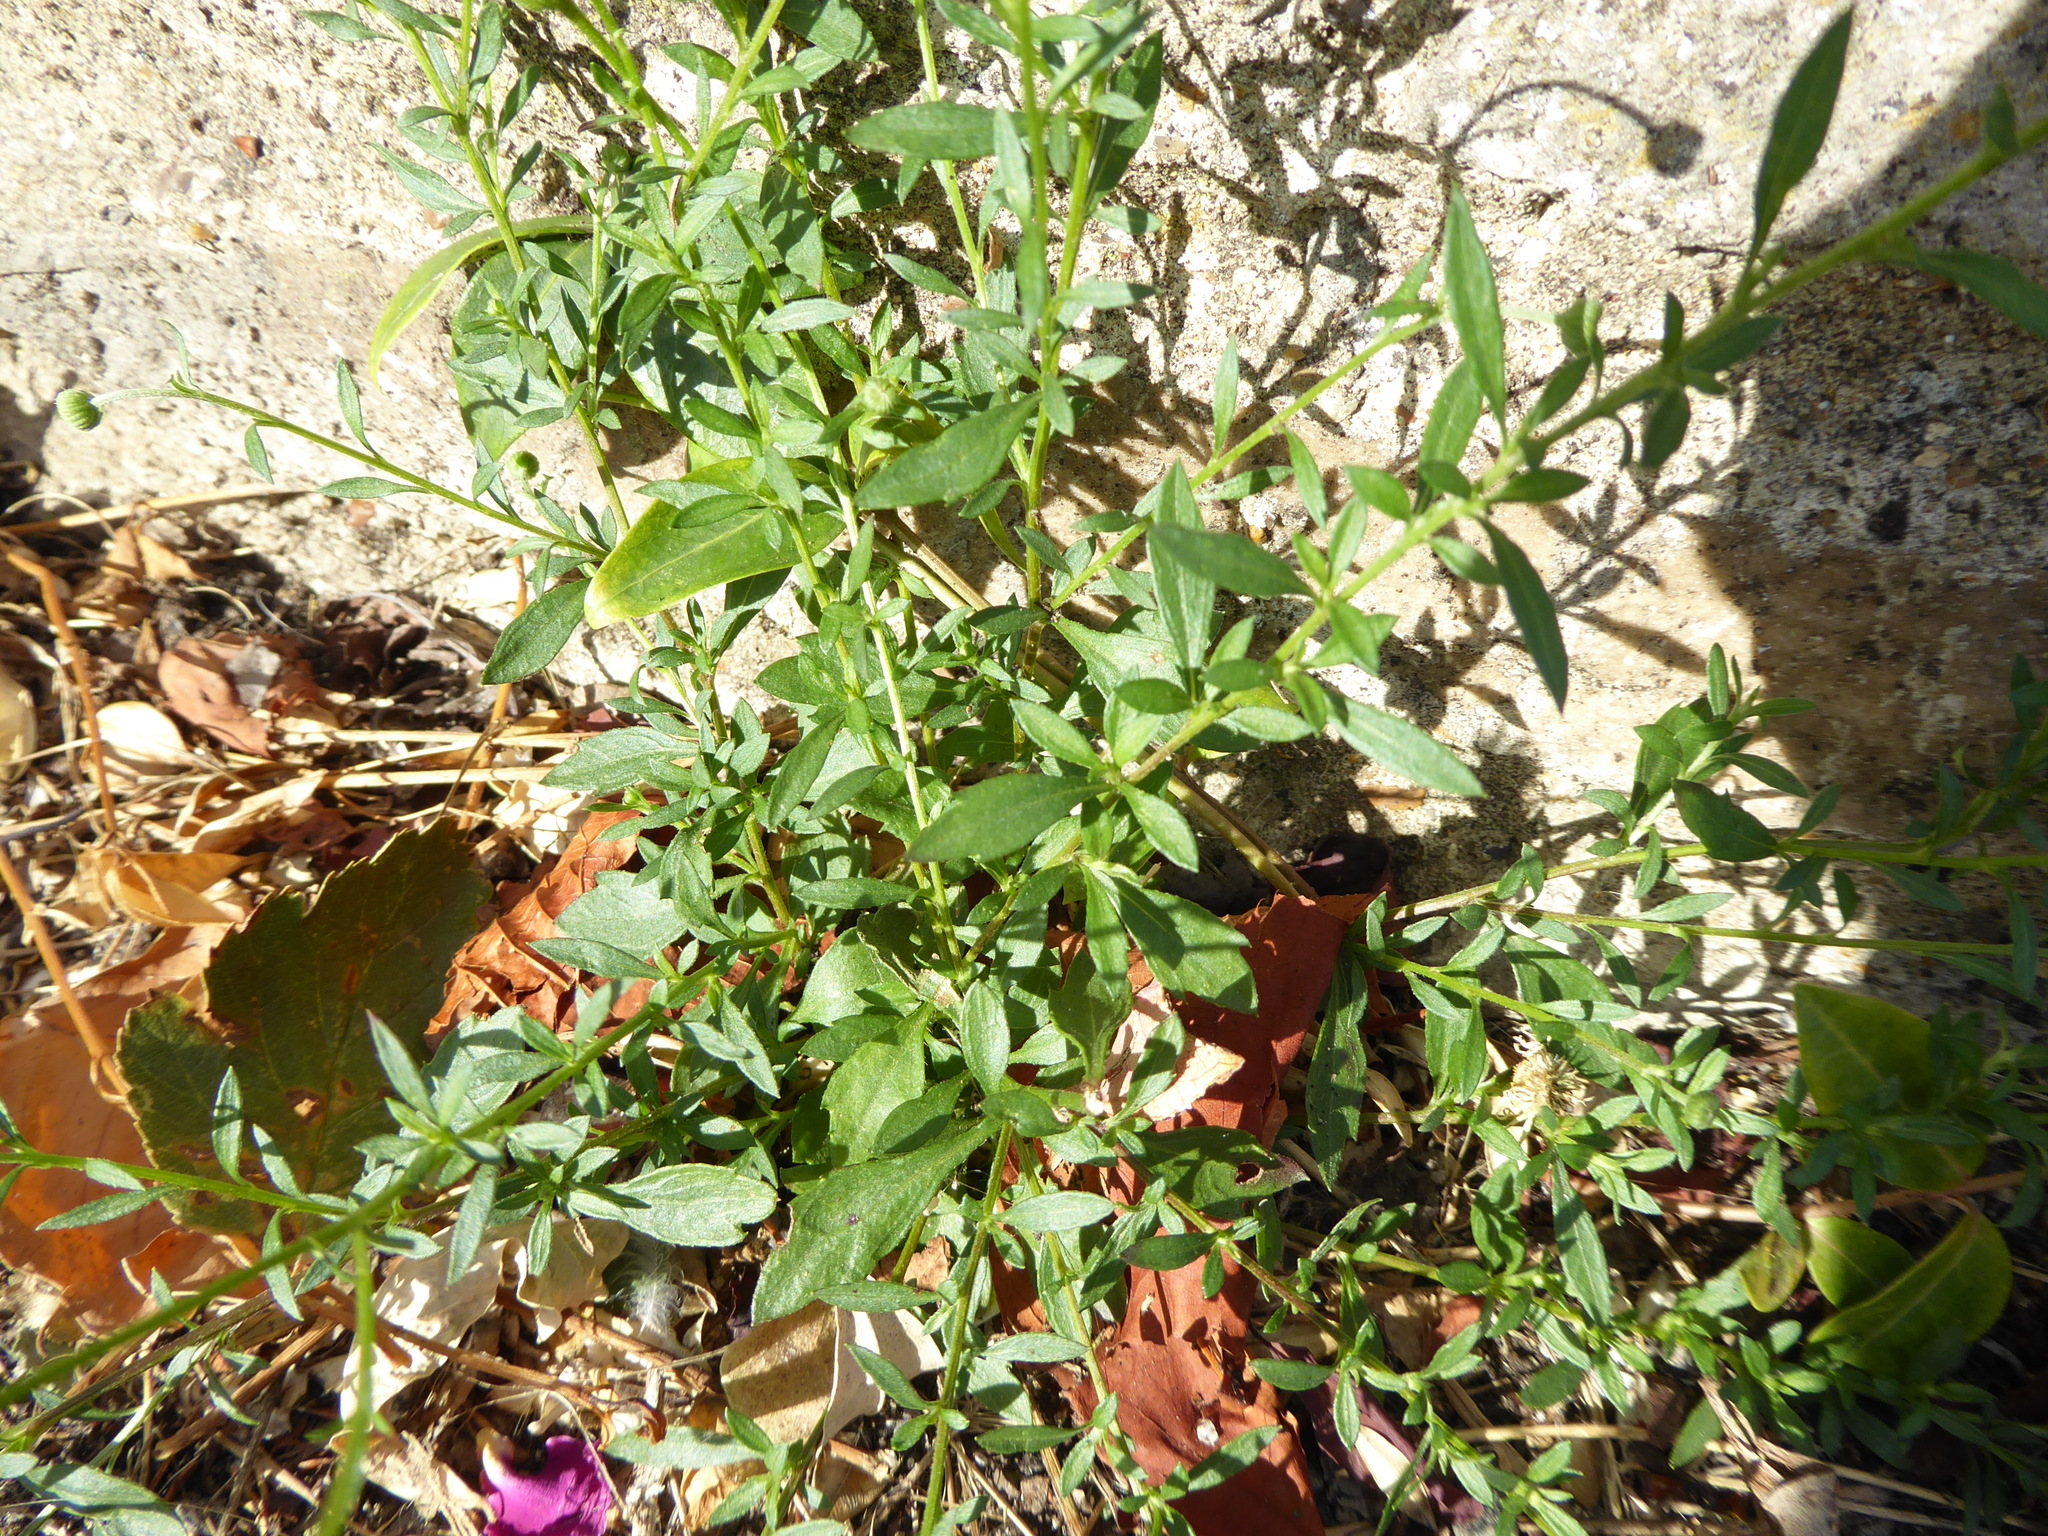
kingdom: Plantae
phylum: Tracheophyta
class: Magnoliopsida
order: Asterales
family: Asteraceae
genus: Erigeron
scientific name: Erigeron karvinskianus
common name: Mexican fleabane
